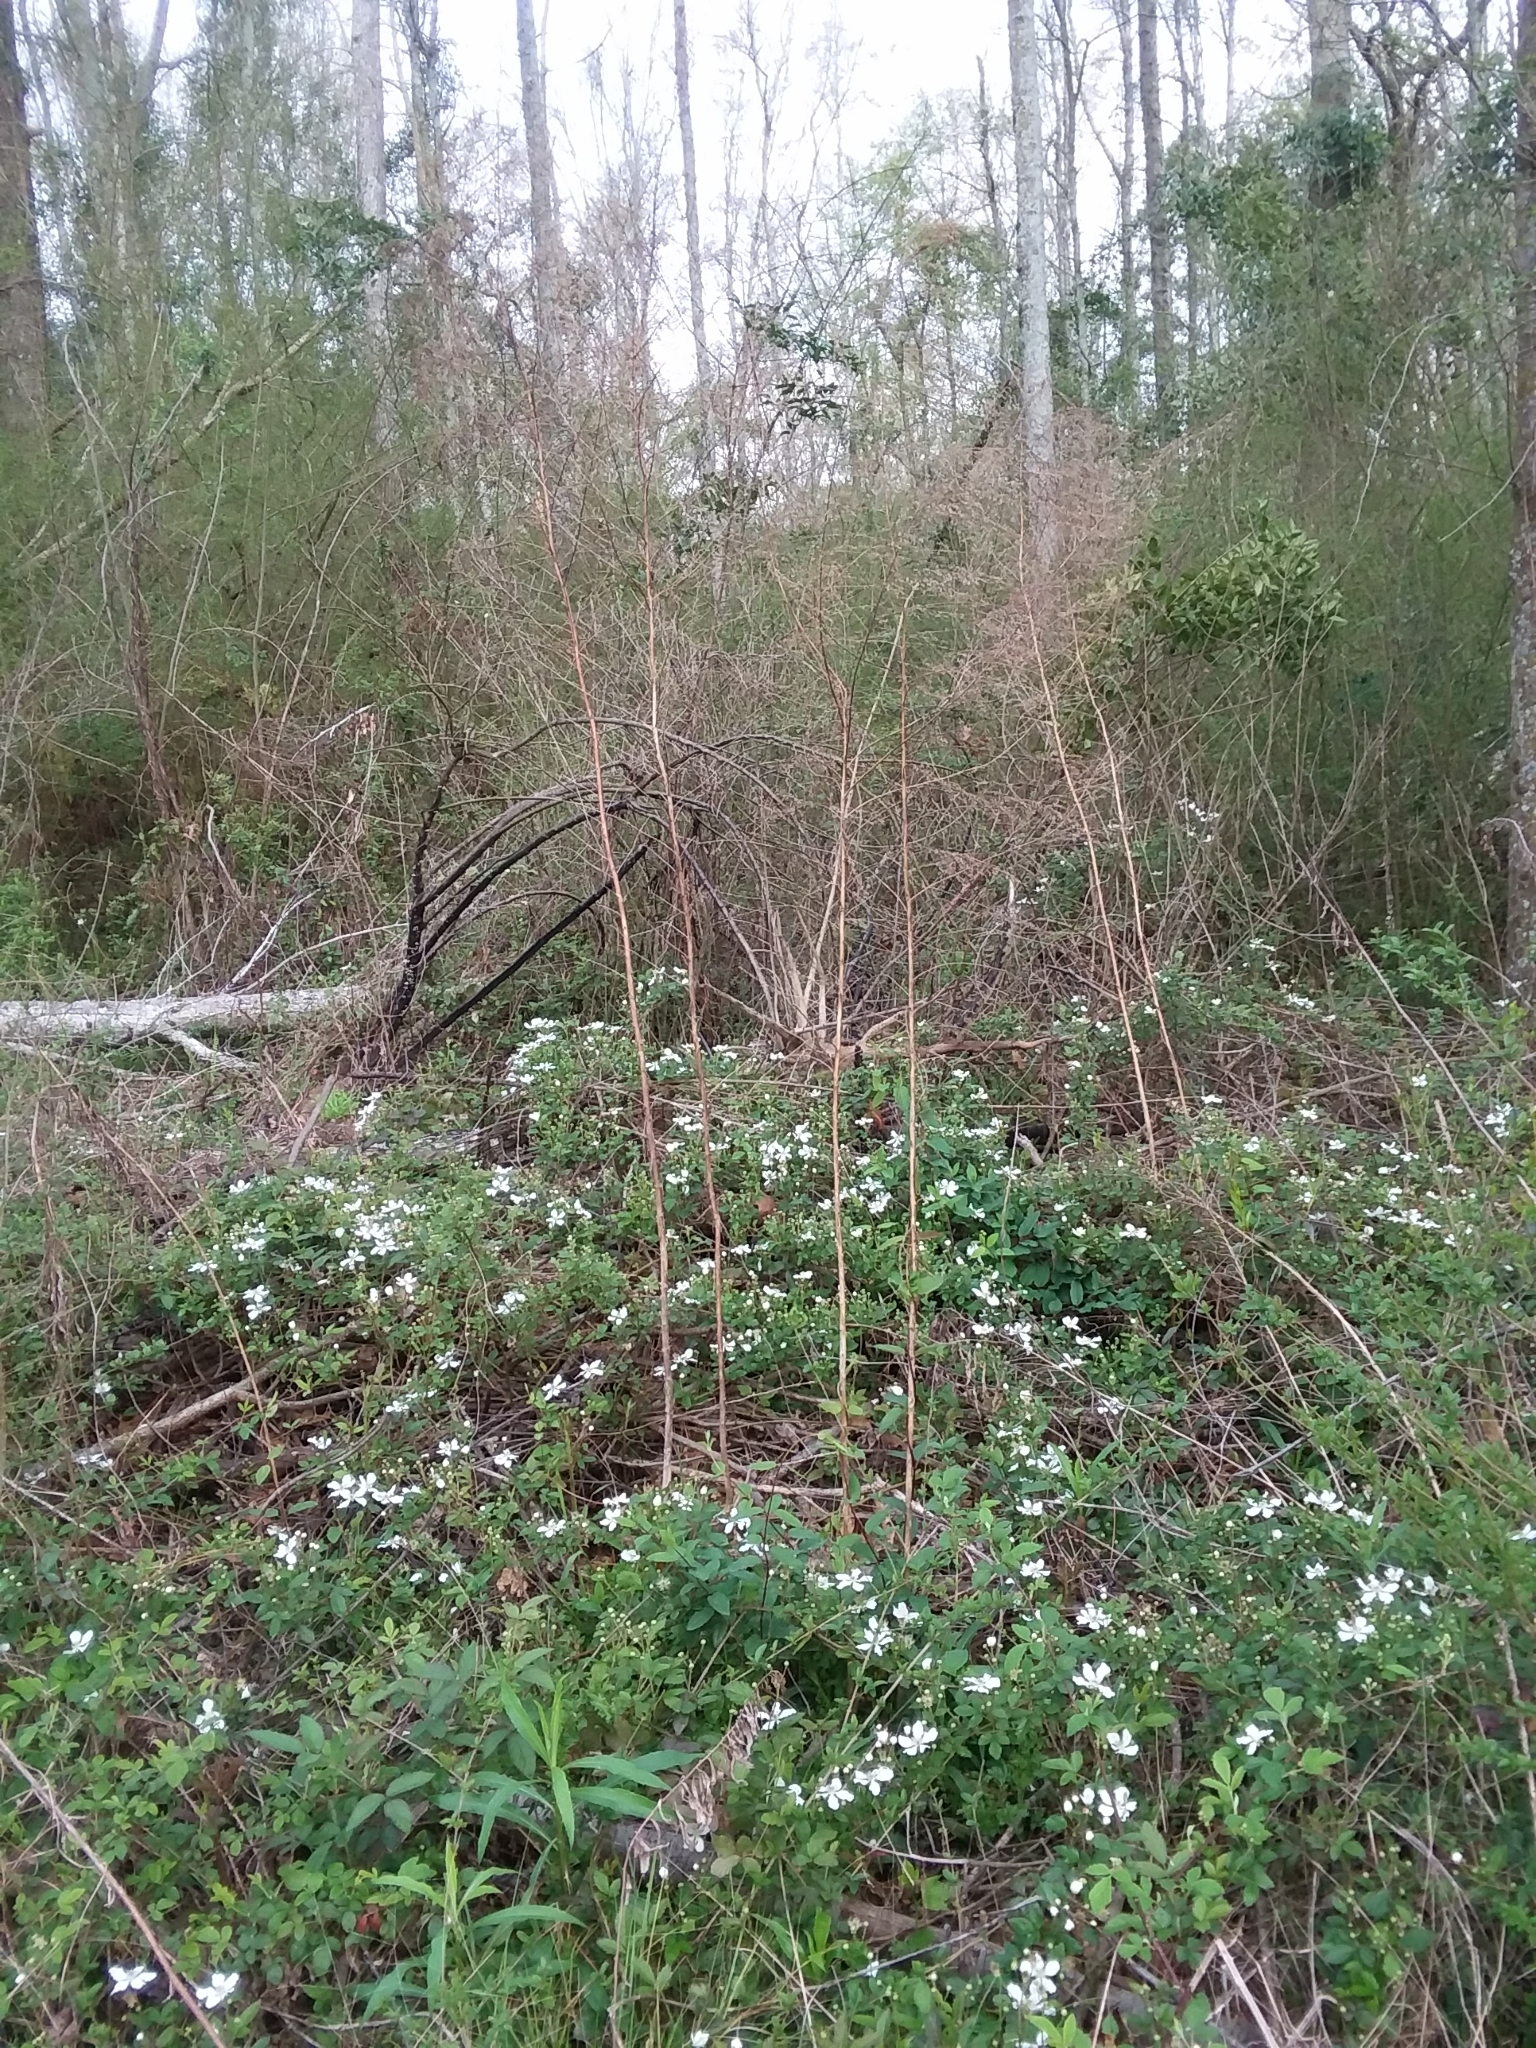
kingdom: Plantae
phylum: Tracheophyta
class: Magnoliopsida
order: Rosales
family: Rosaceae
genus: Rubus
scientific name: Rubus flagellaris
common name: American dewberry
